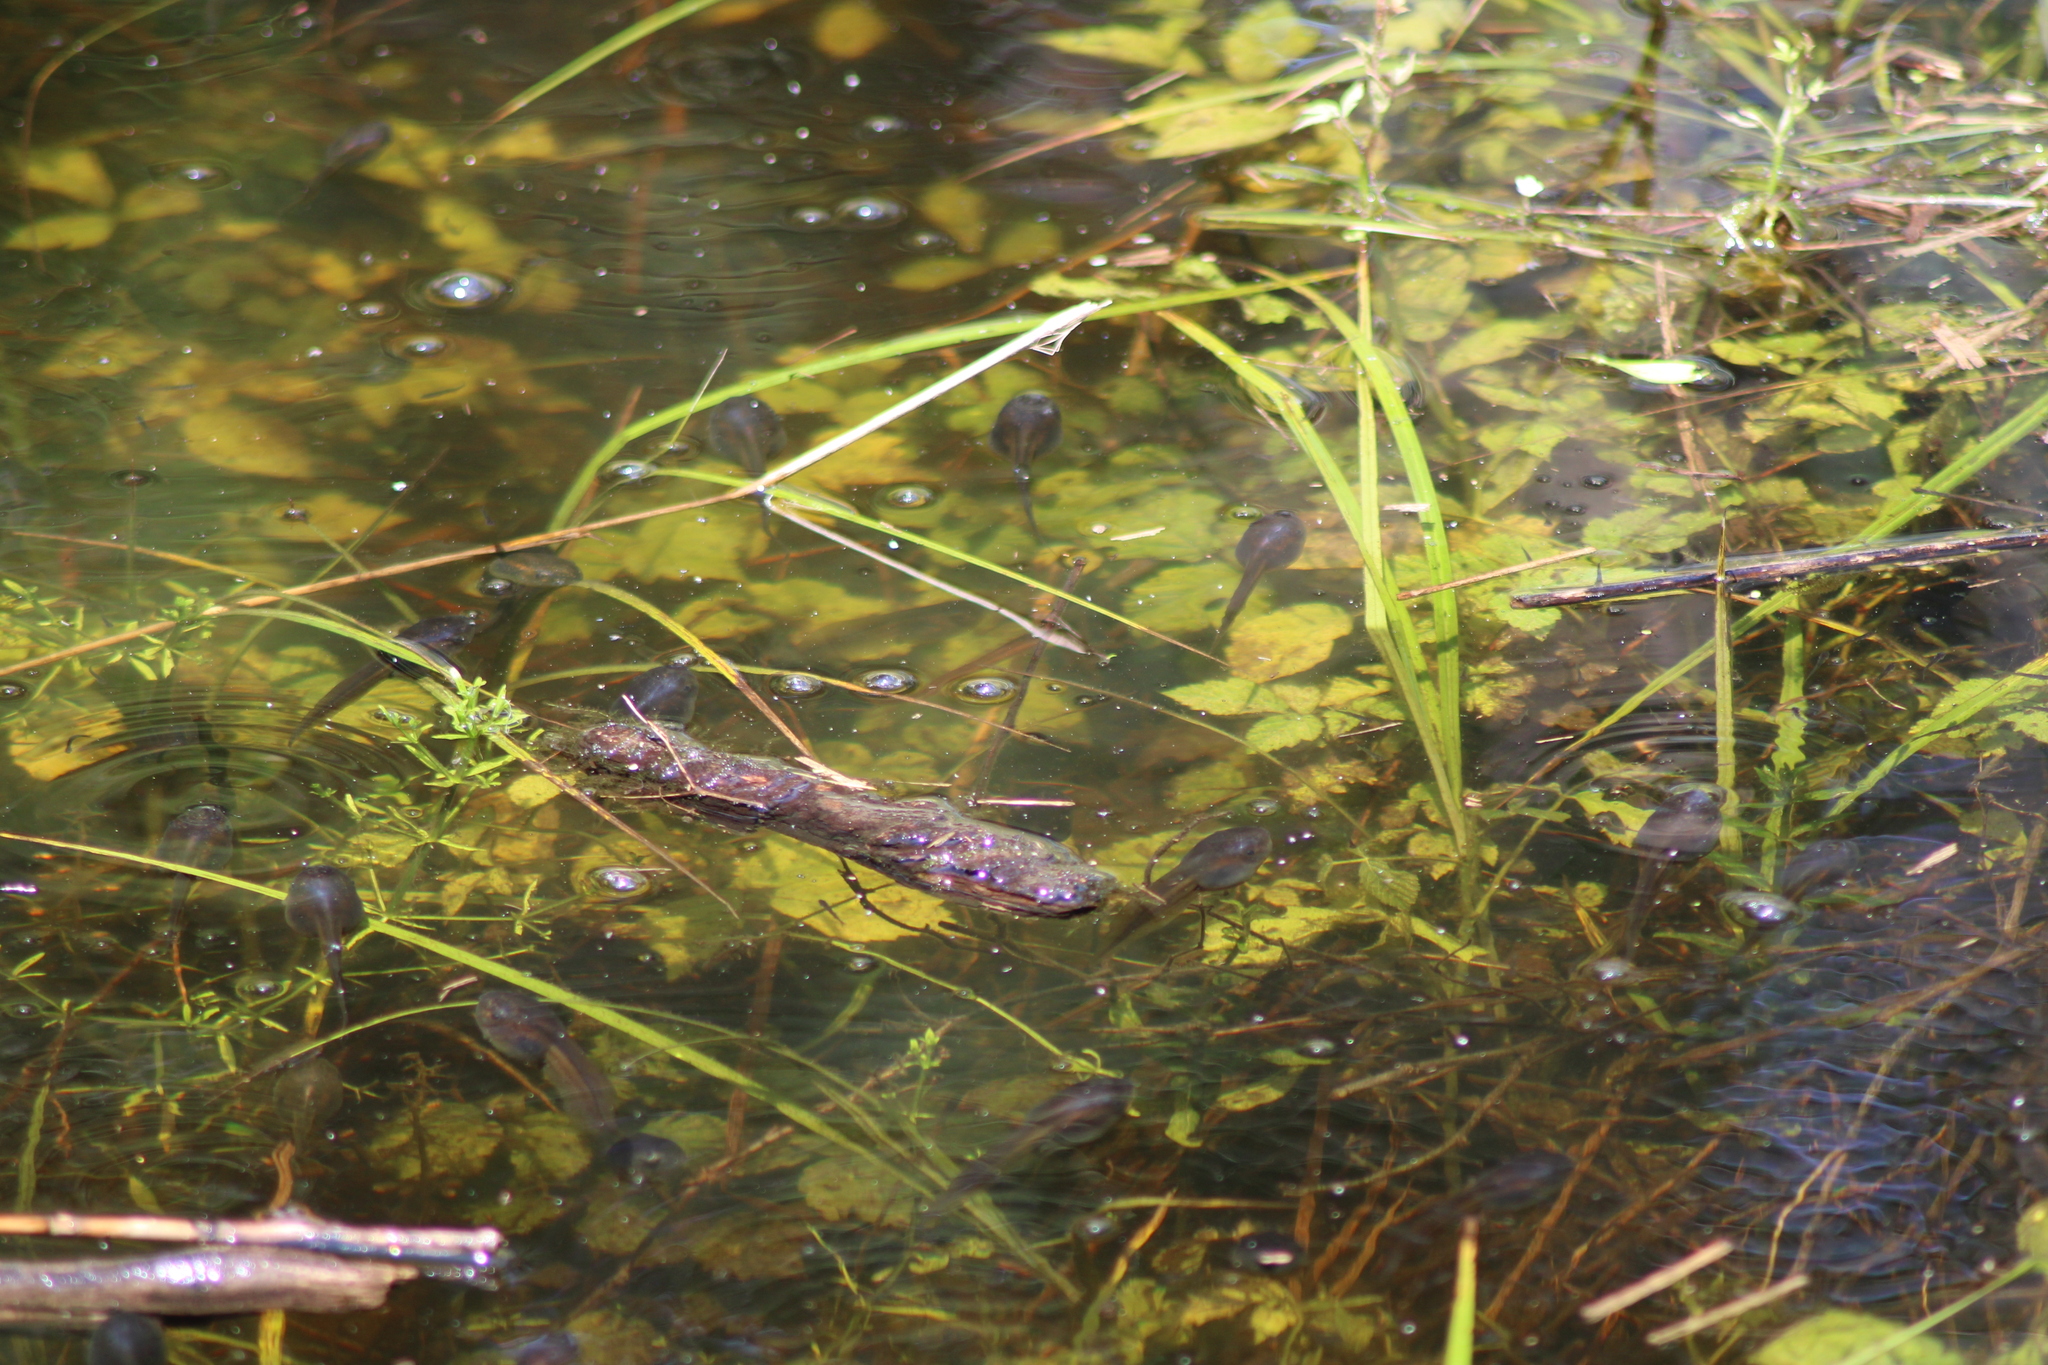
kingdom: Animalia
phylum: Chordata
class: Amphibia
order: Anura
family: Pelobatidae
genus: Pelobates
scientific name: Pelobates fuscus
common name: Common eurasian spadefoot toad
